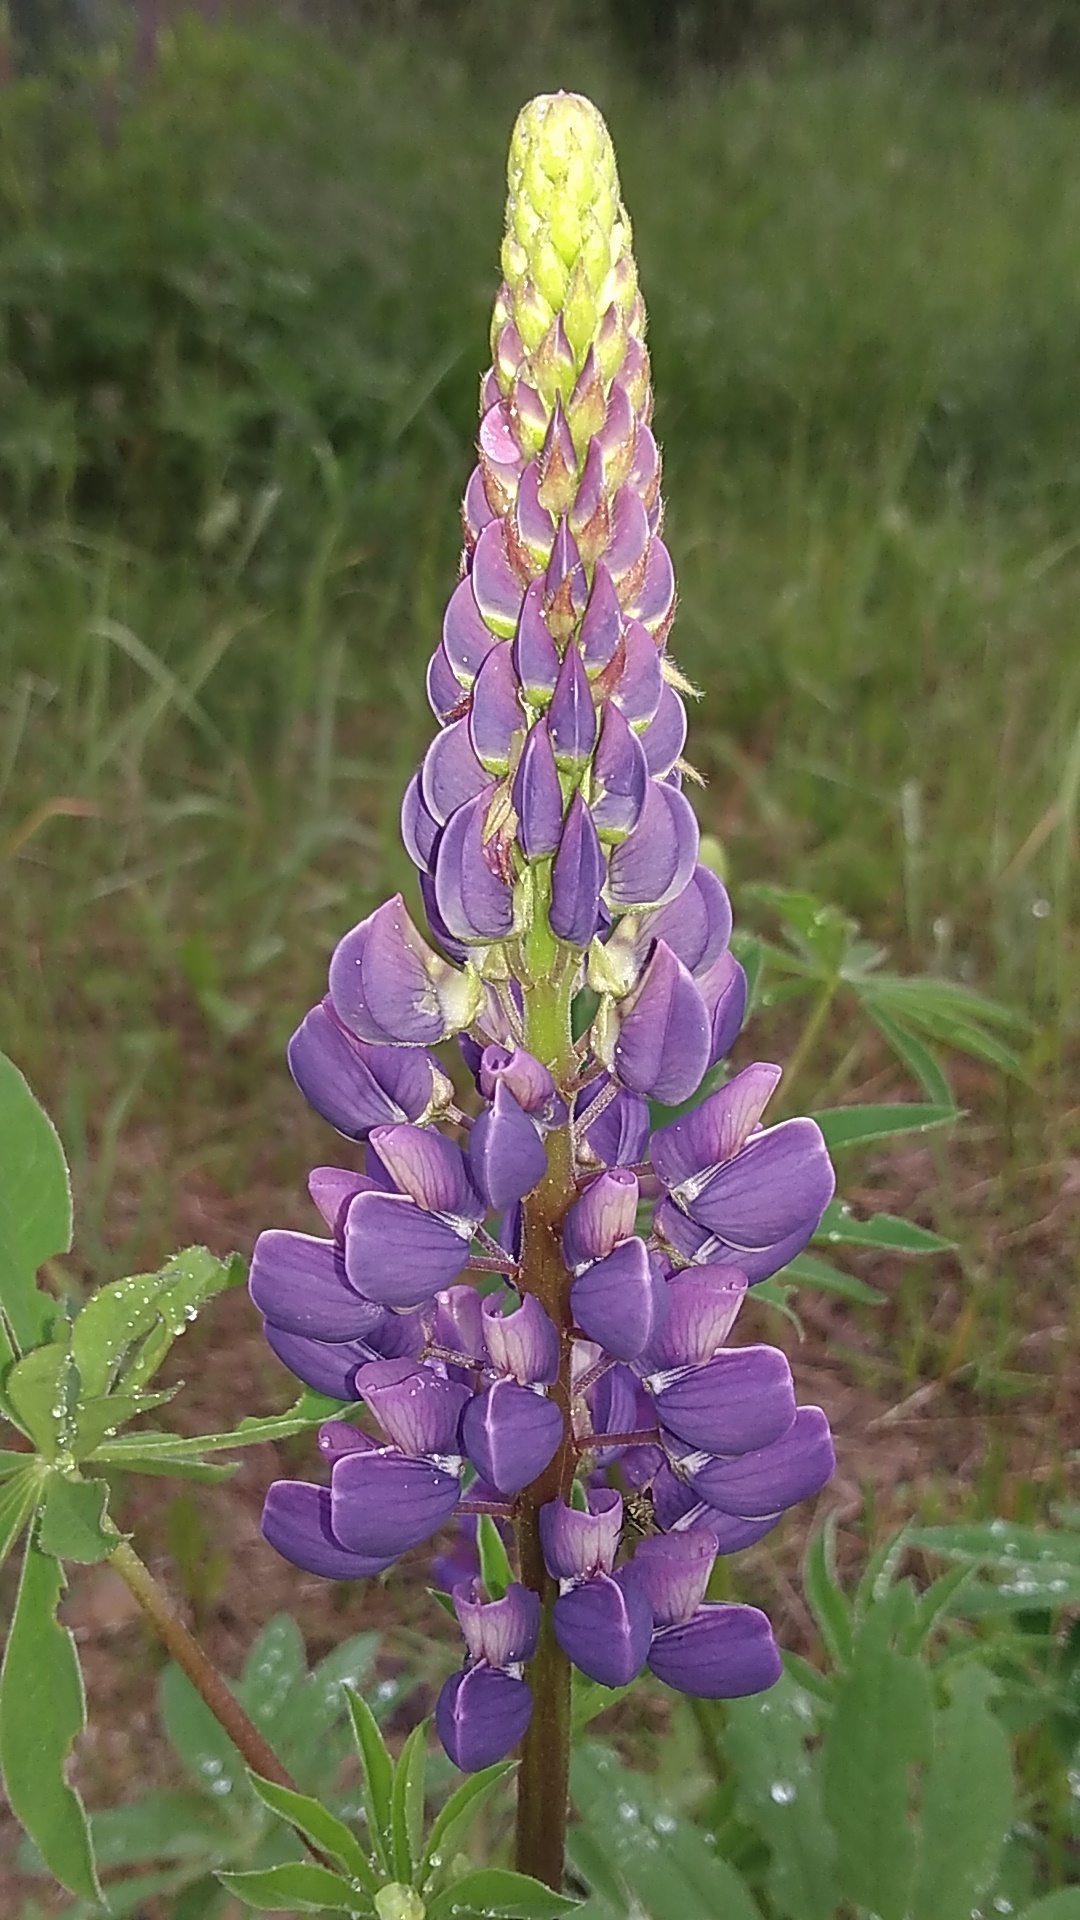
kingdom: Plantae
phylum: Tracheophyta
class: Magnoliopsida
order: Fabales
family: Fabaceae
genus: Lupinus
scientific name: Lupinus polyphyllus
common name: Garden lupin
